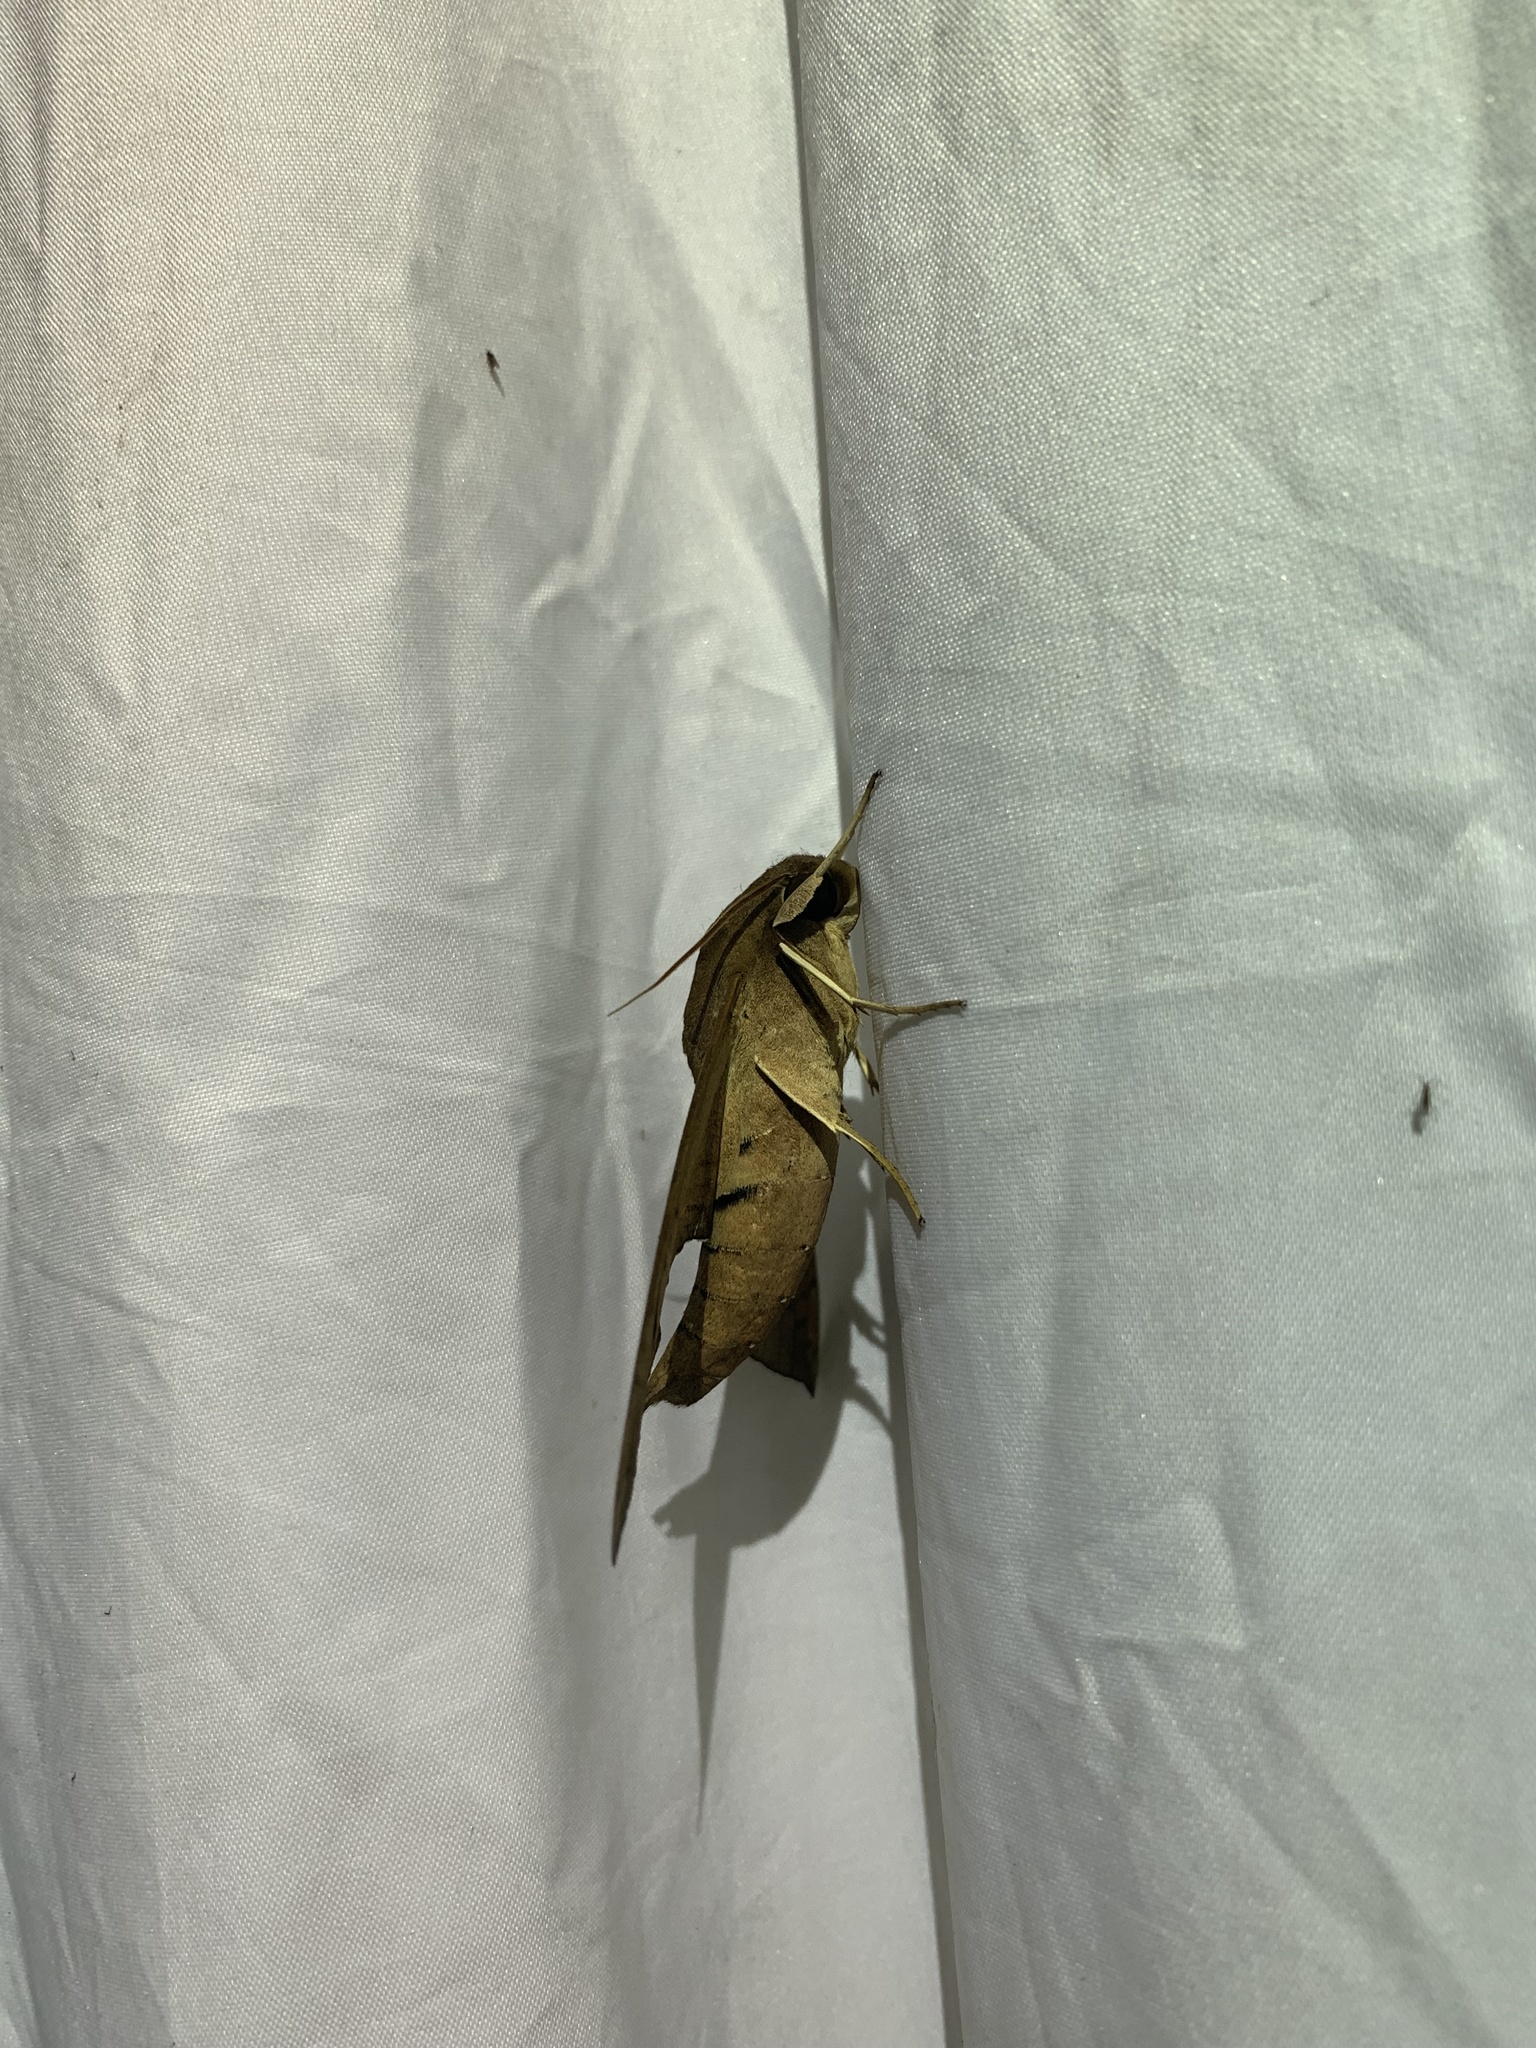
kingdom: Animalia
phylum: Arthropoda
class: Insecta
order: Lepidoptera
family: Sphingidae
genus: Pachylioides
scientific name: Pachylioides resumens
